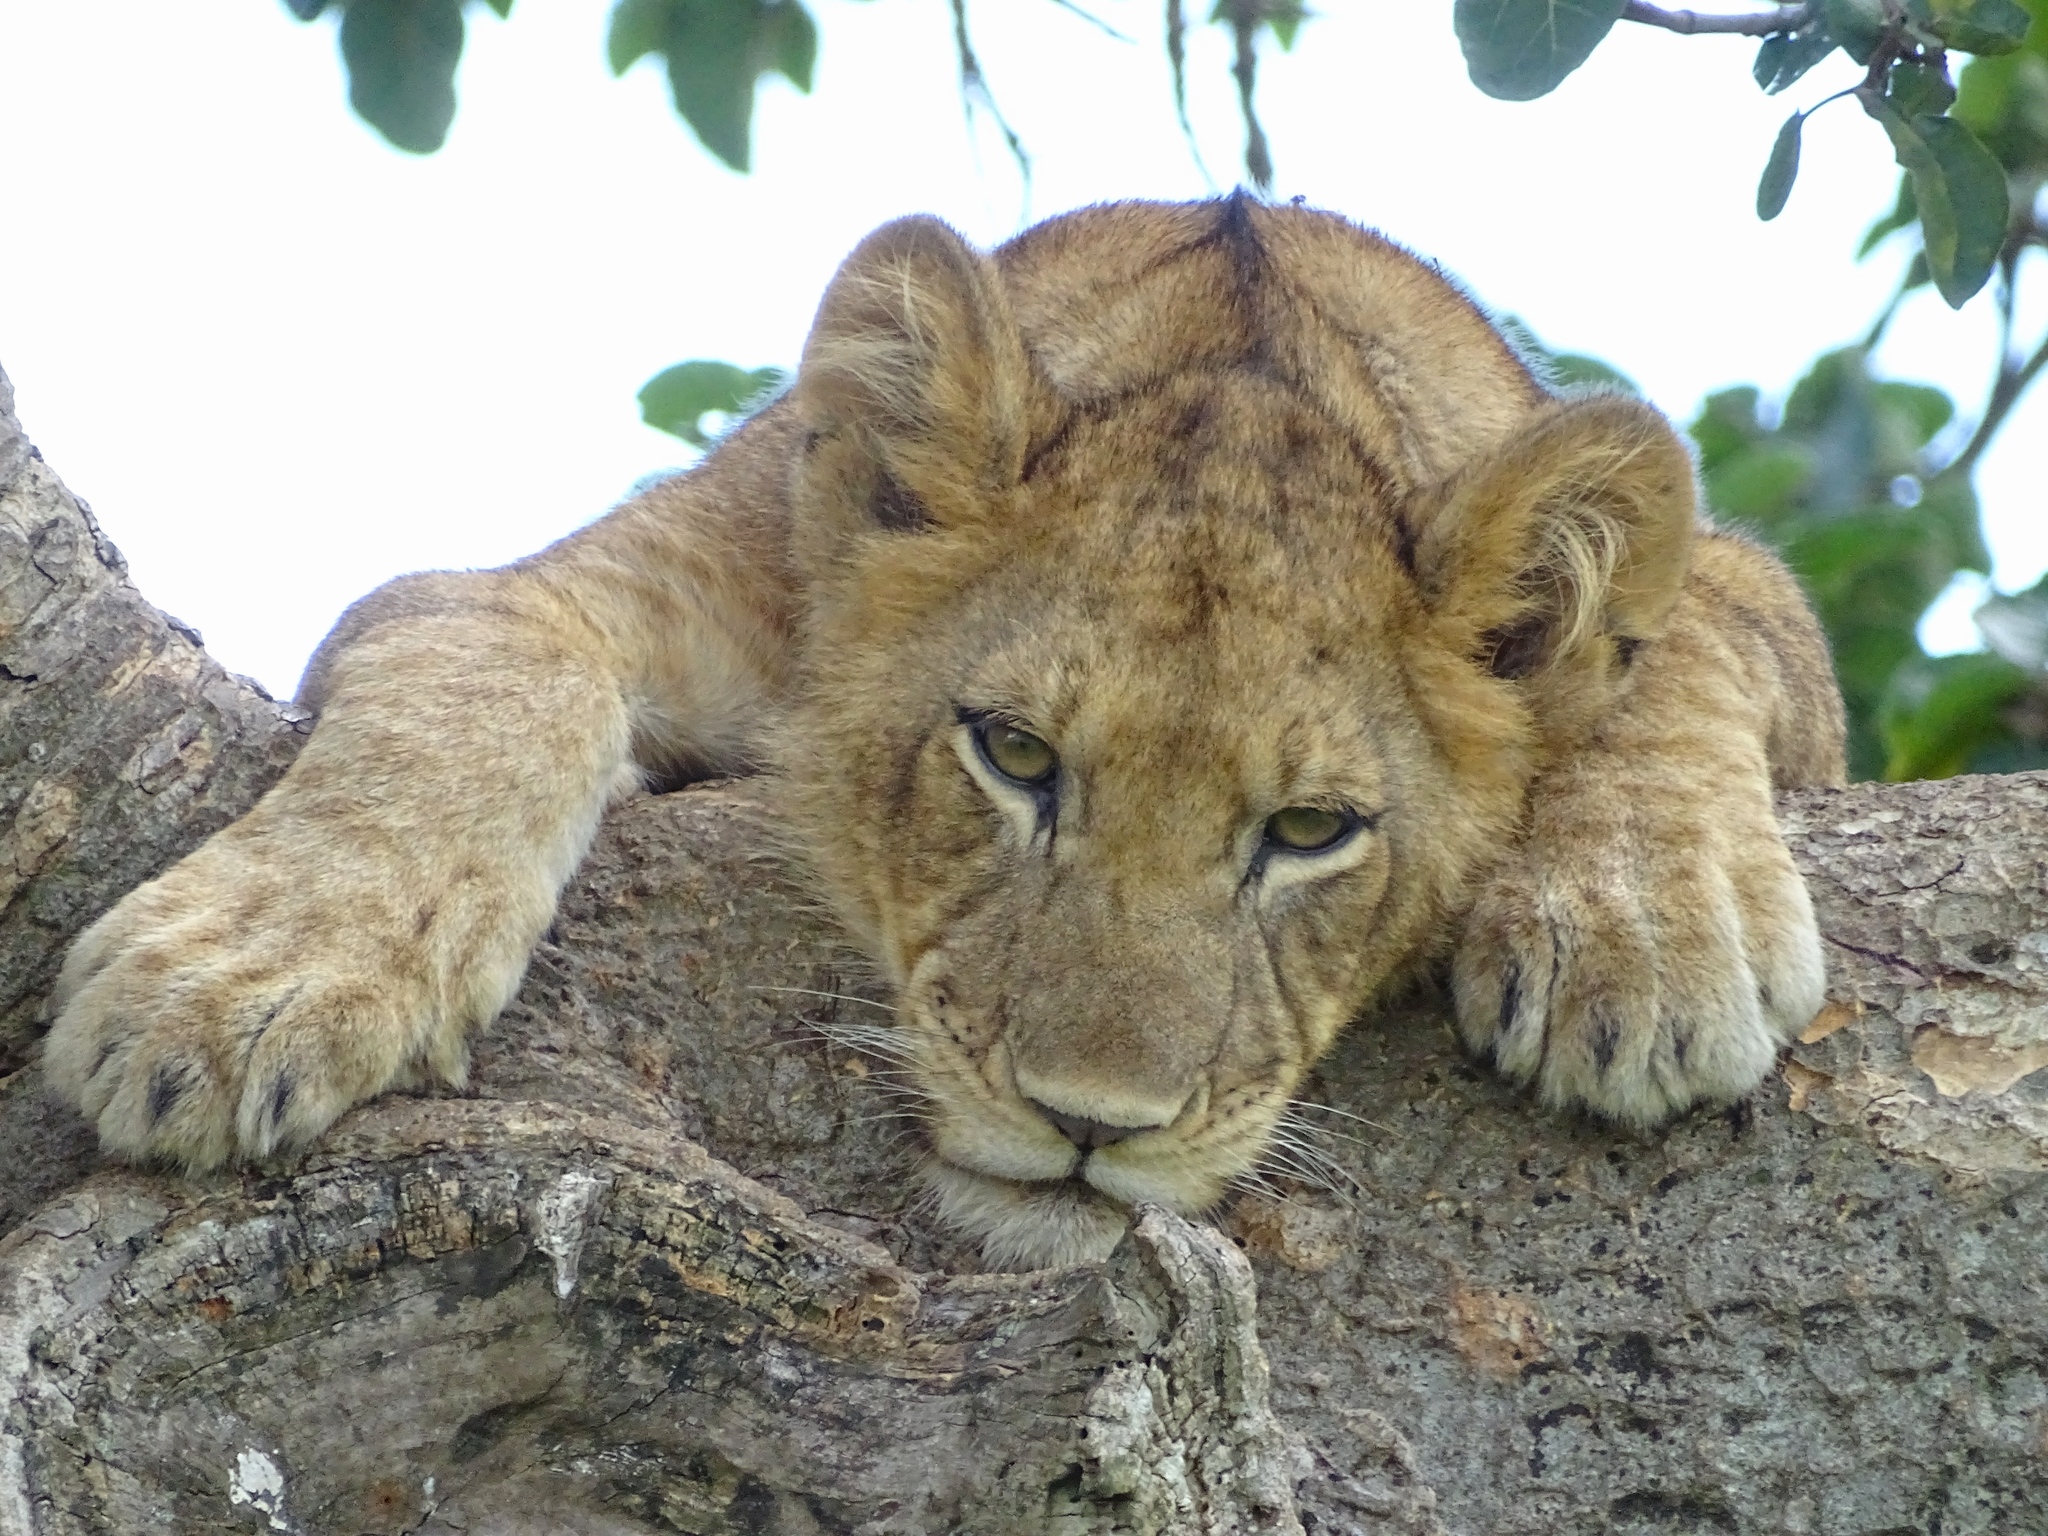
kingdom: Animalia
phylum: Chordata
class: Mammalia
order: Carnivora
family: Felidae
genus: Panthera
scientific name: Panthera leo
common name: Lion
